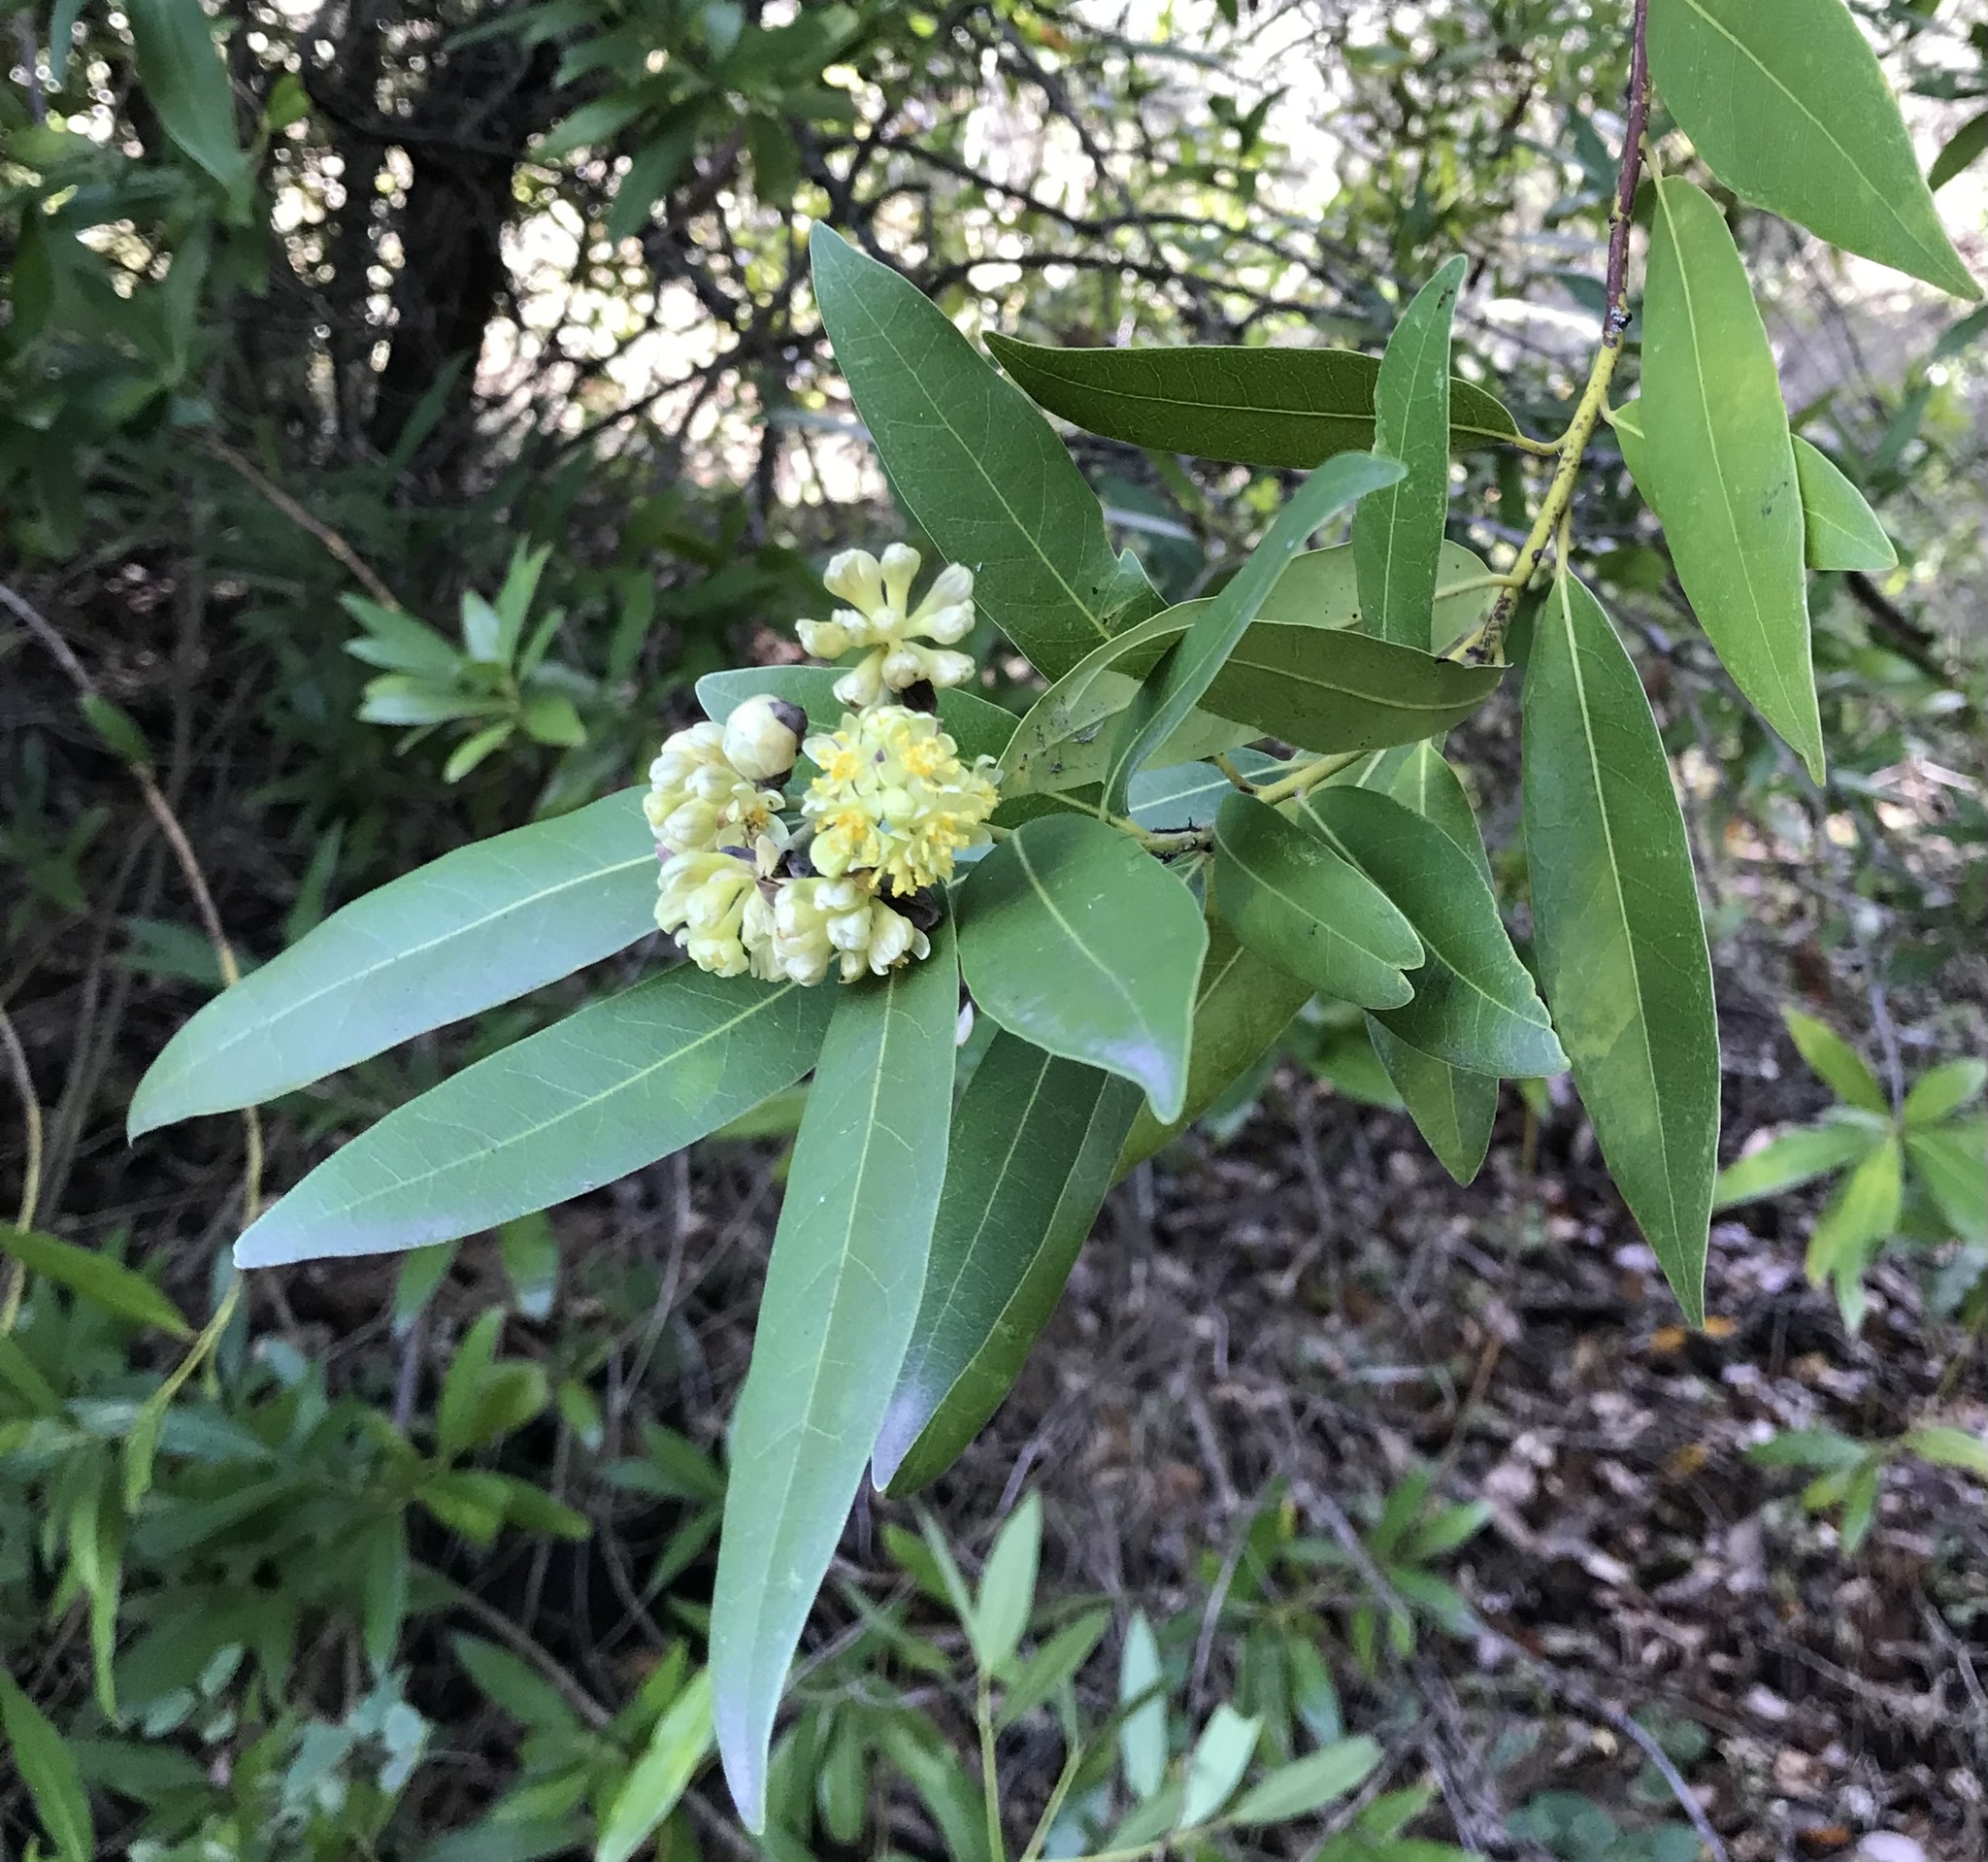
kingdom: Plantae
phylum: Tracheophyta
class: Magnoliopsida
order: Laurales
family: Lauraceae
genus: Umbellularia
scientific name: Umbellularia californica
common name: California bay
